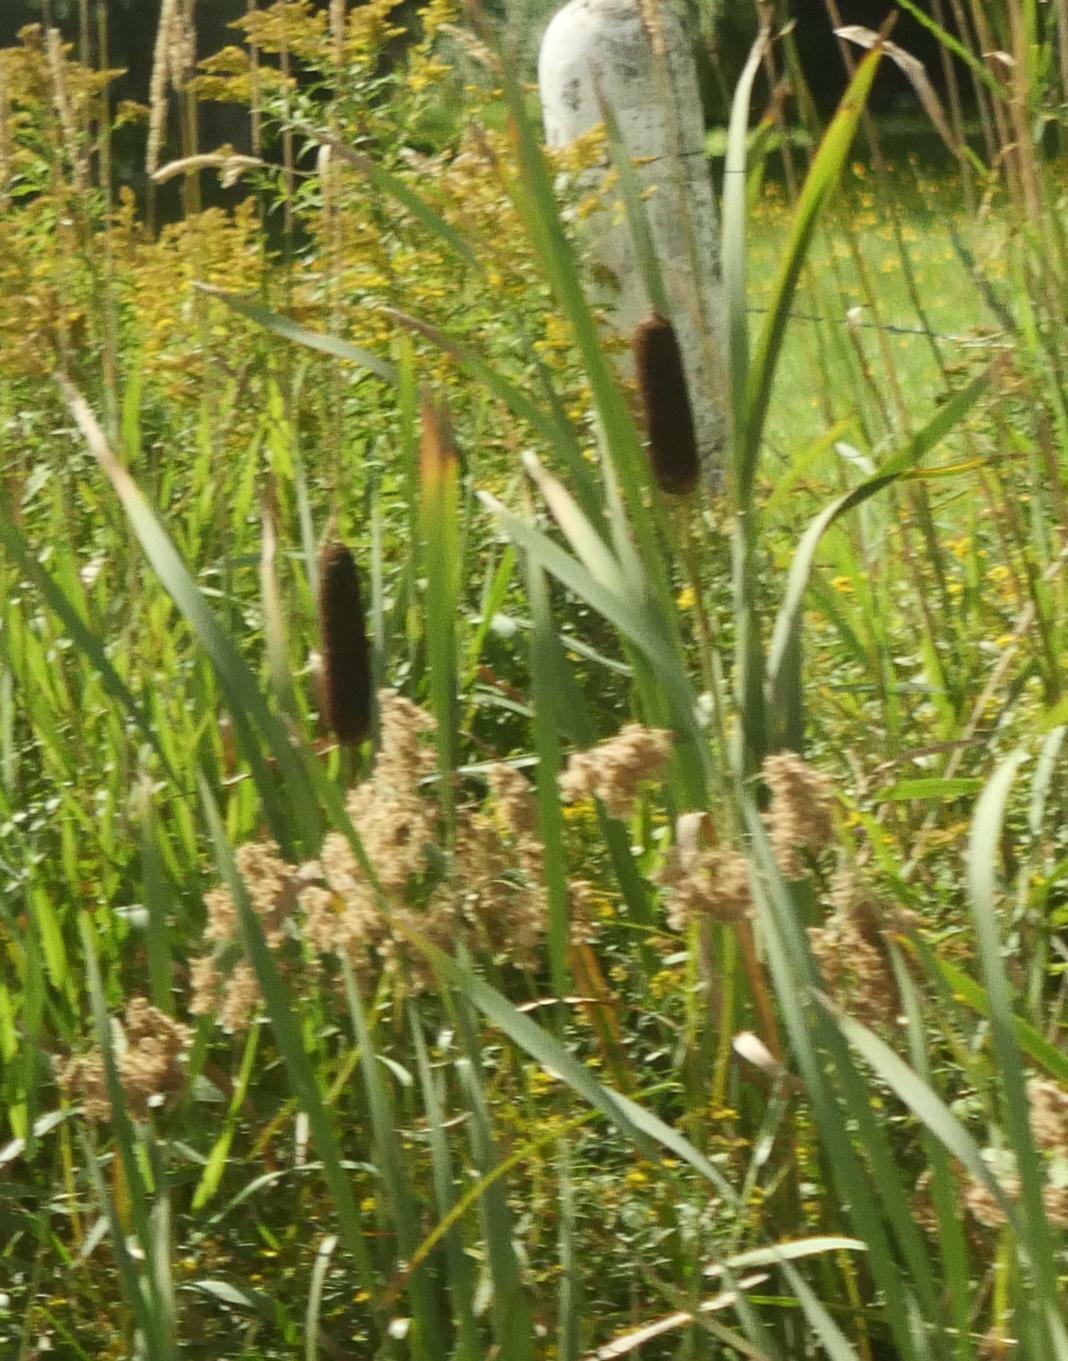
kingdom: Plantae
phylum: Tracheophyta
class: Liliopsida
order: Poales
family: Typhaceae
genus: Typha
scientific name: Typha latifolia
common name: Broadleaf cattail
